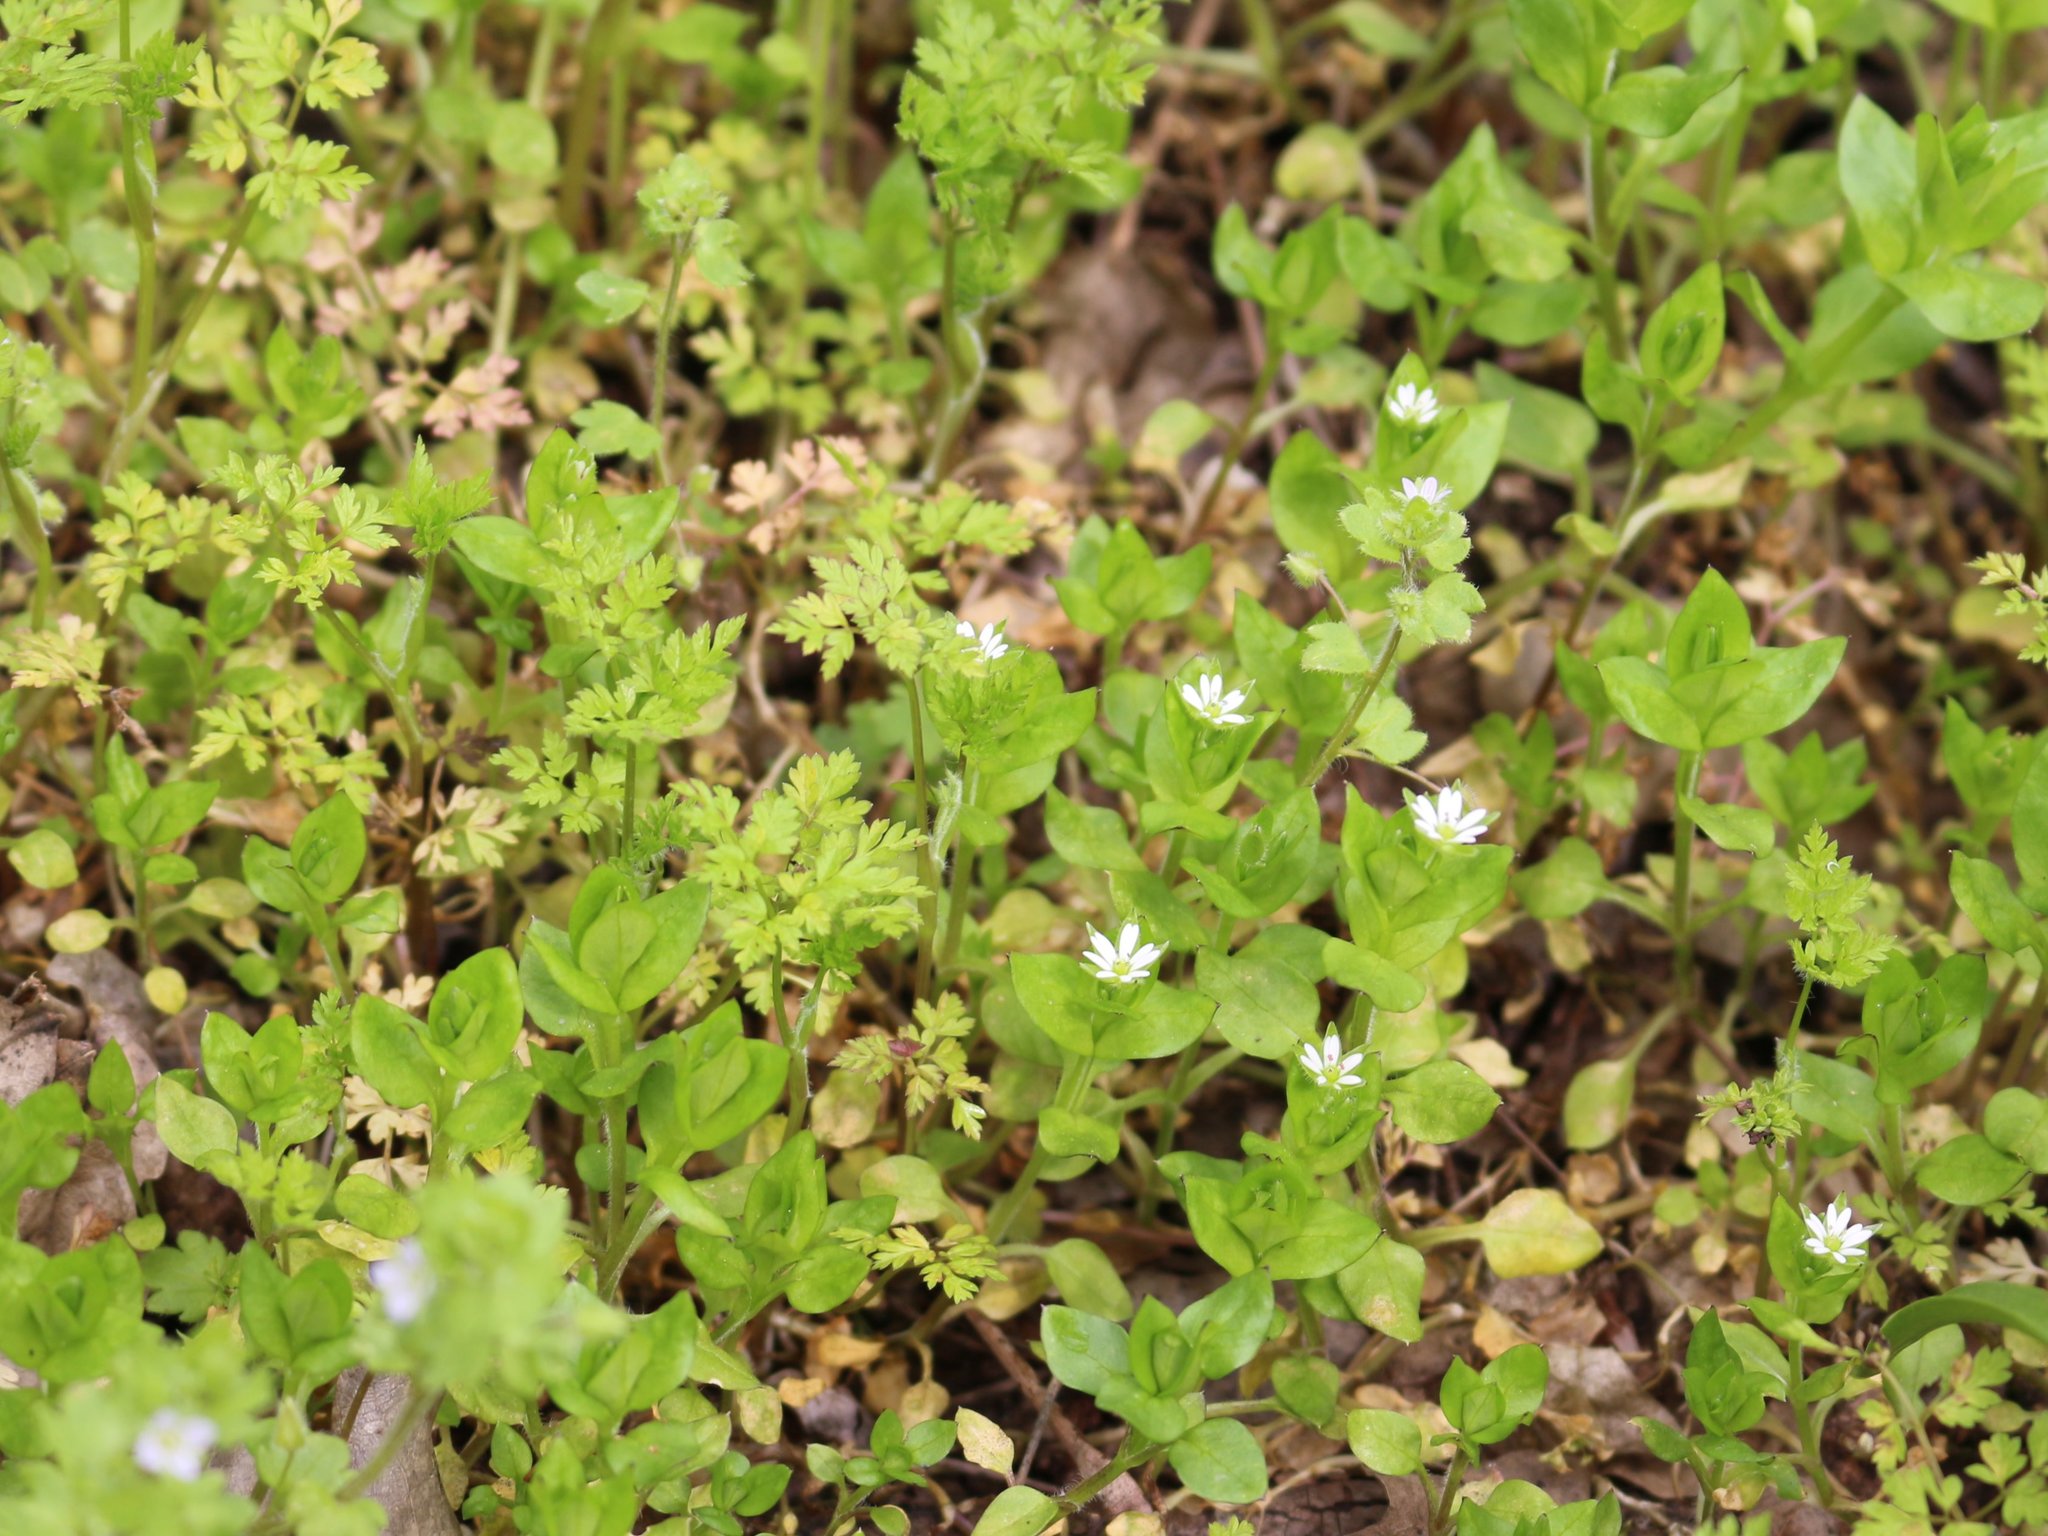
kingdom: Plantae
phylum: Tracheophyta
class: Magnoliopsida
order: Caryophyllales
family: Caryophyllaceae
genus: Stellaria
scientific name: Stellaria media
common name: Common chickweed
